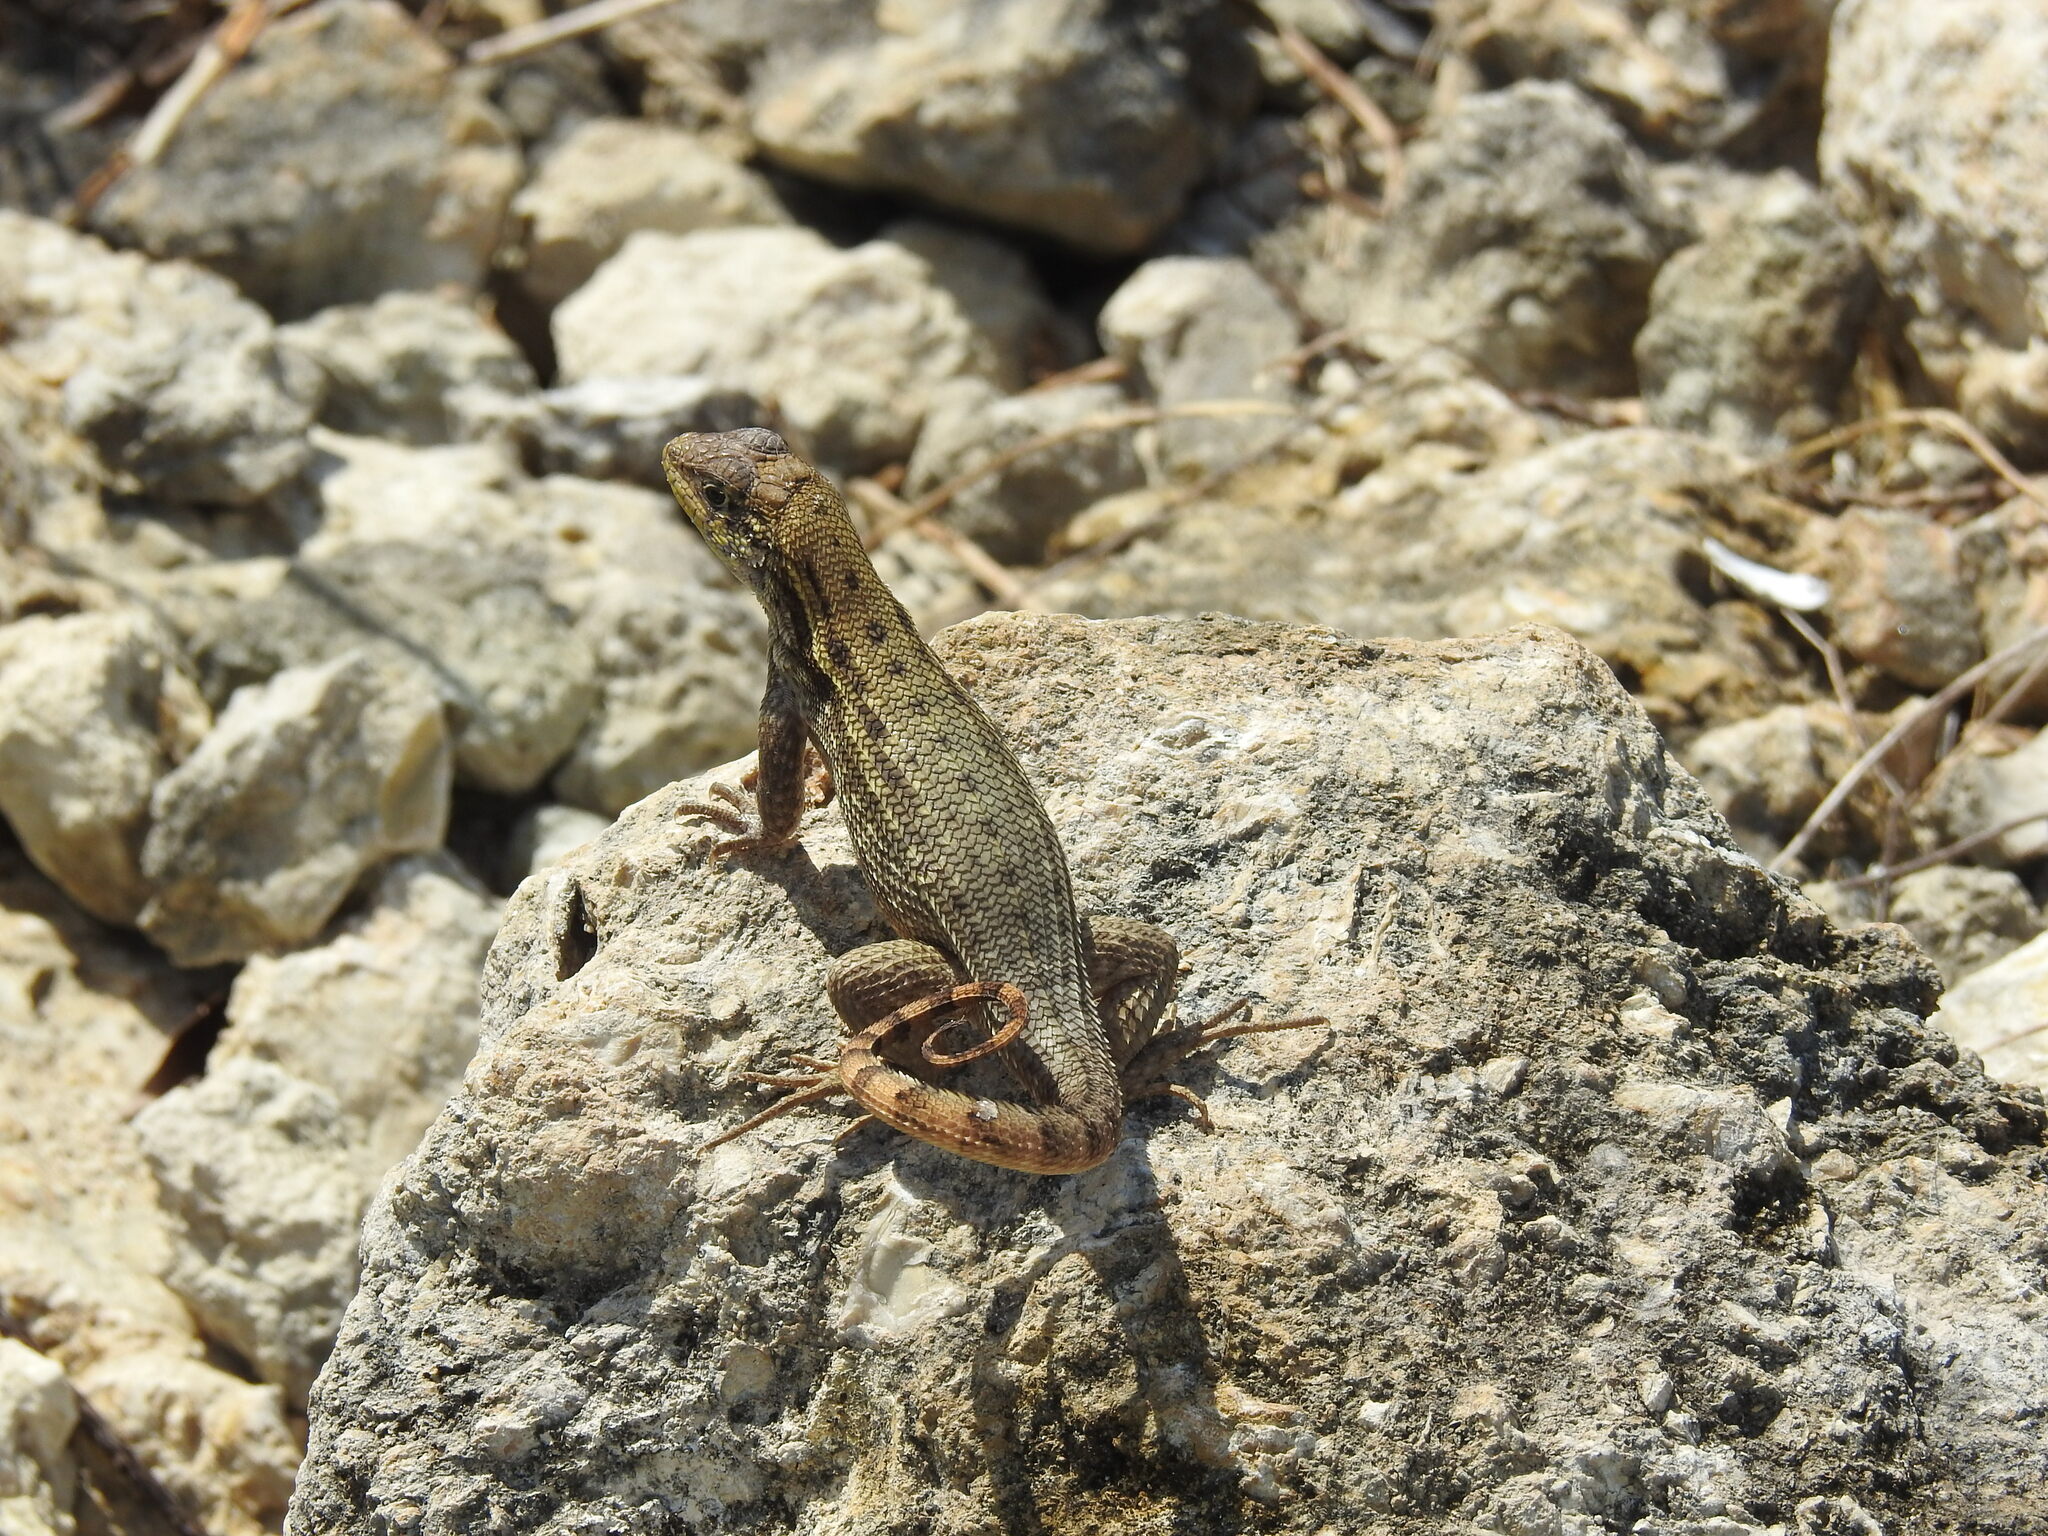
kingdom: Animalia
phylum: Chordata
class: Squamata
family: Leiocephalidae
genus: Leiocephalus
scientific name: Leiocephalus carinatus
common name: Northern curly-tailed lizard
